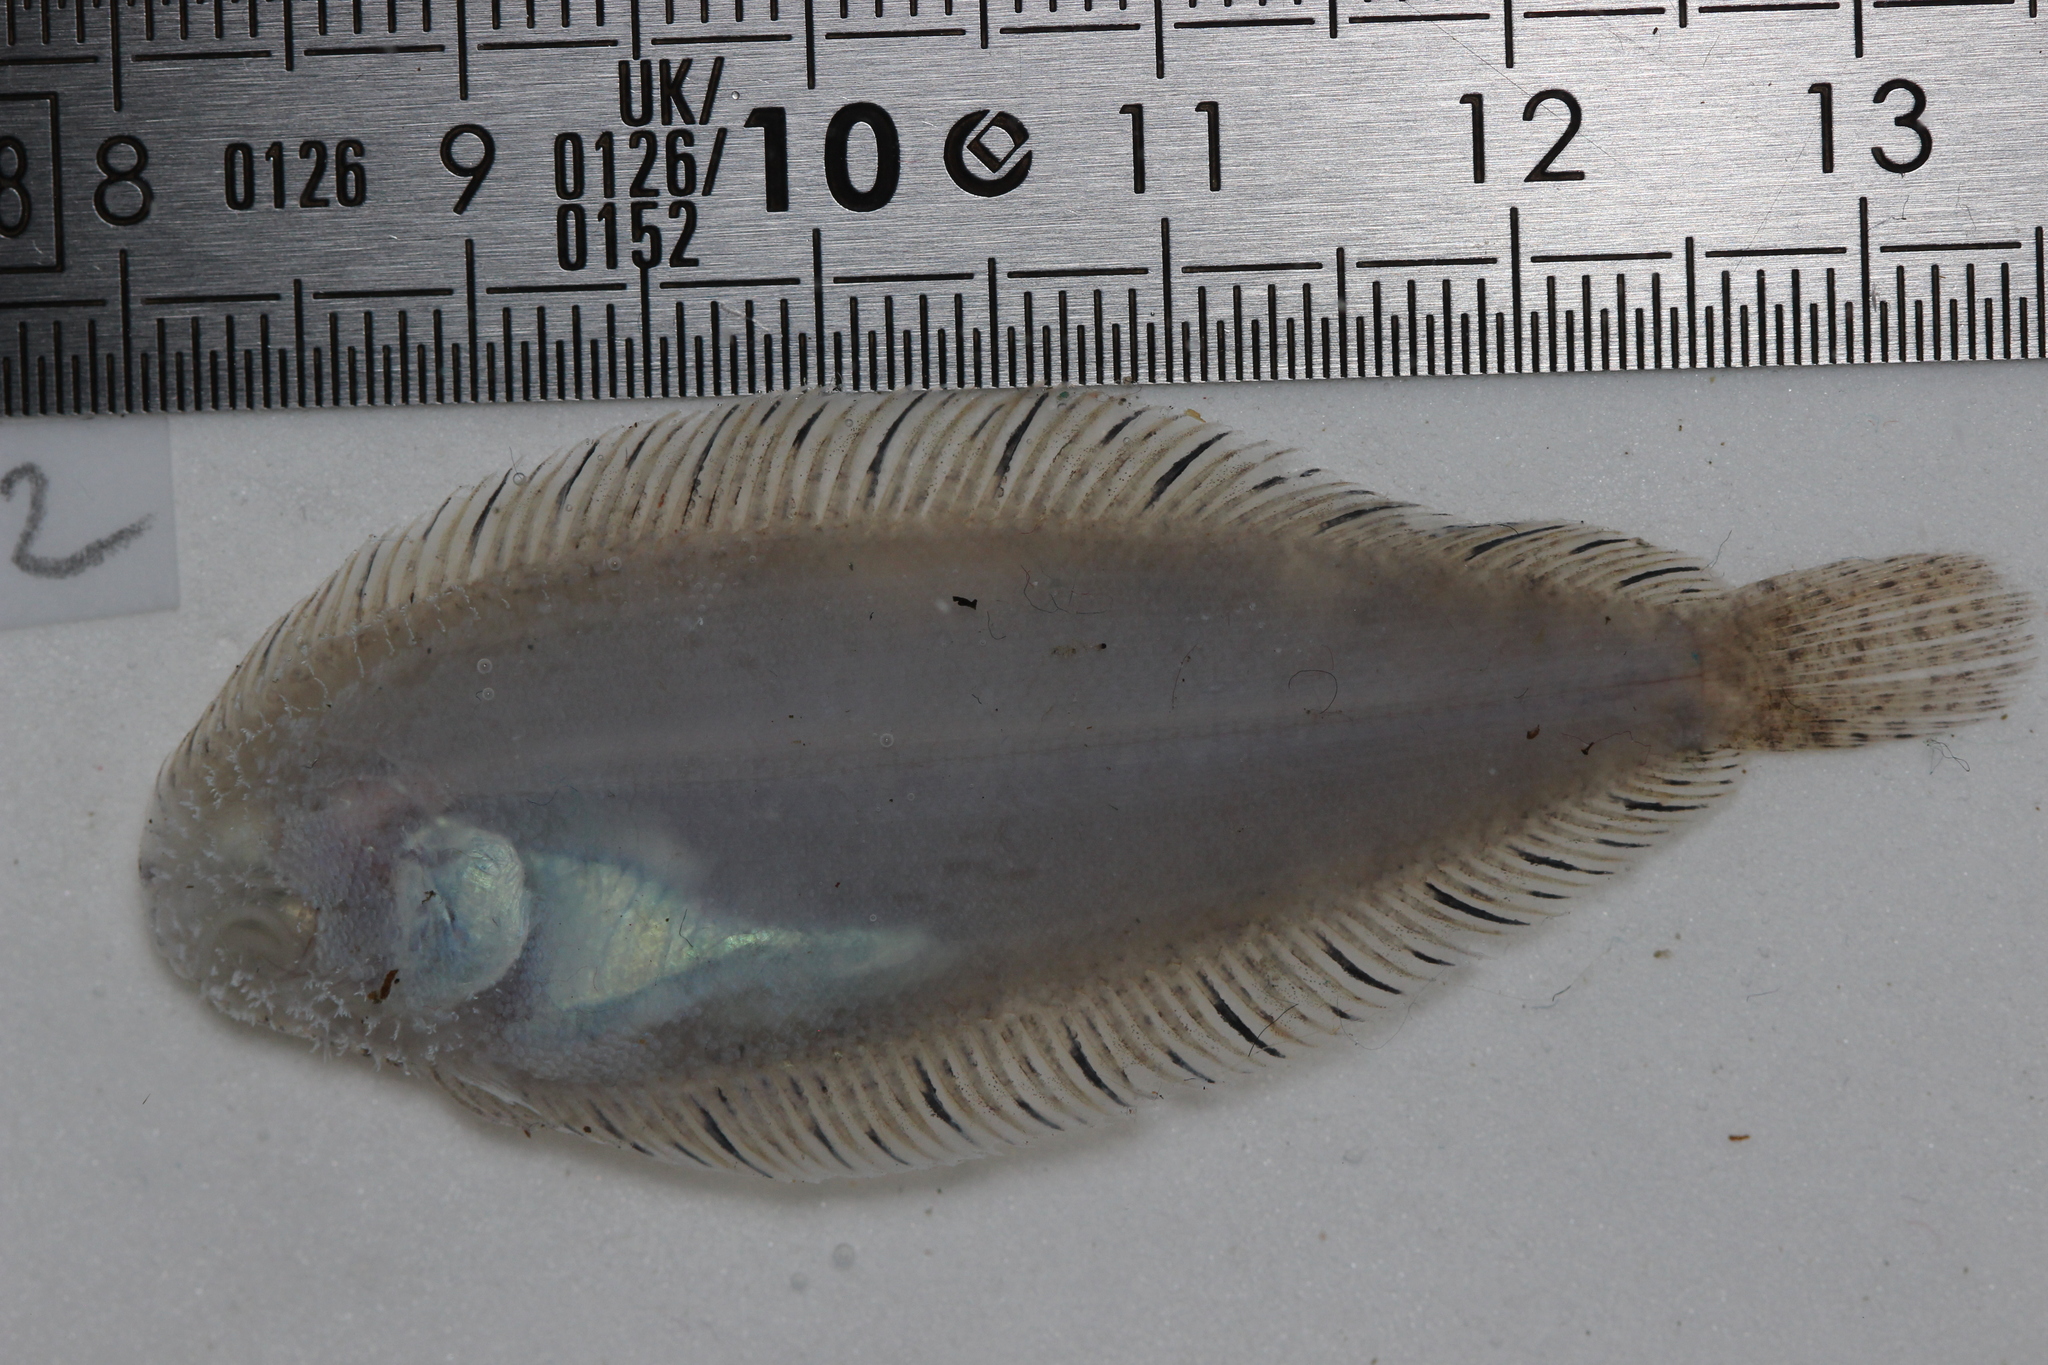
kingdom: Animalia
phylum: Chordata
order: Pleuronectiformes
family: Soleidae
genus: Buglossidium
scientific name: Buglossidium luteum
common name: Solenette
